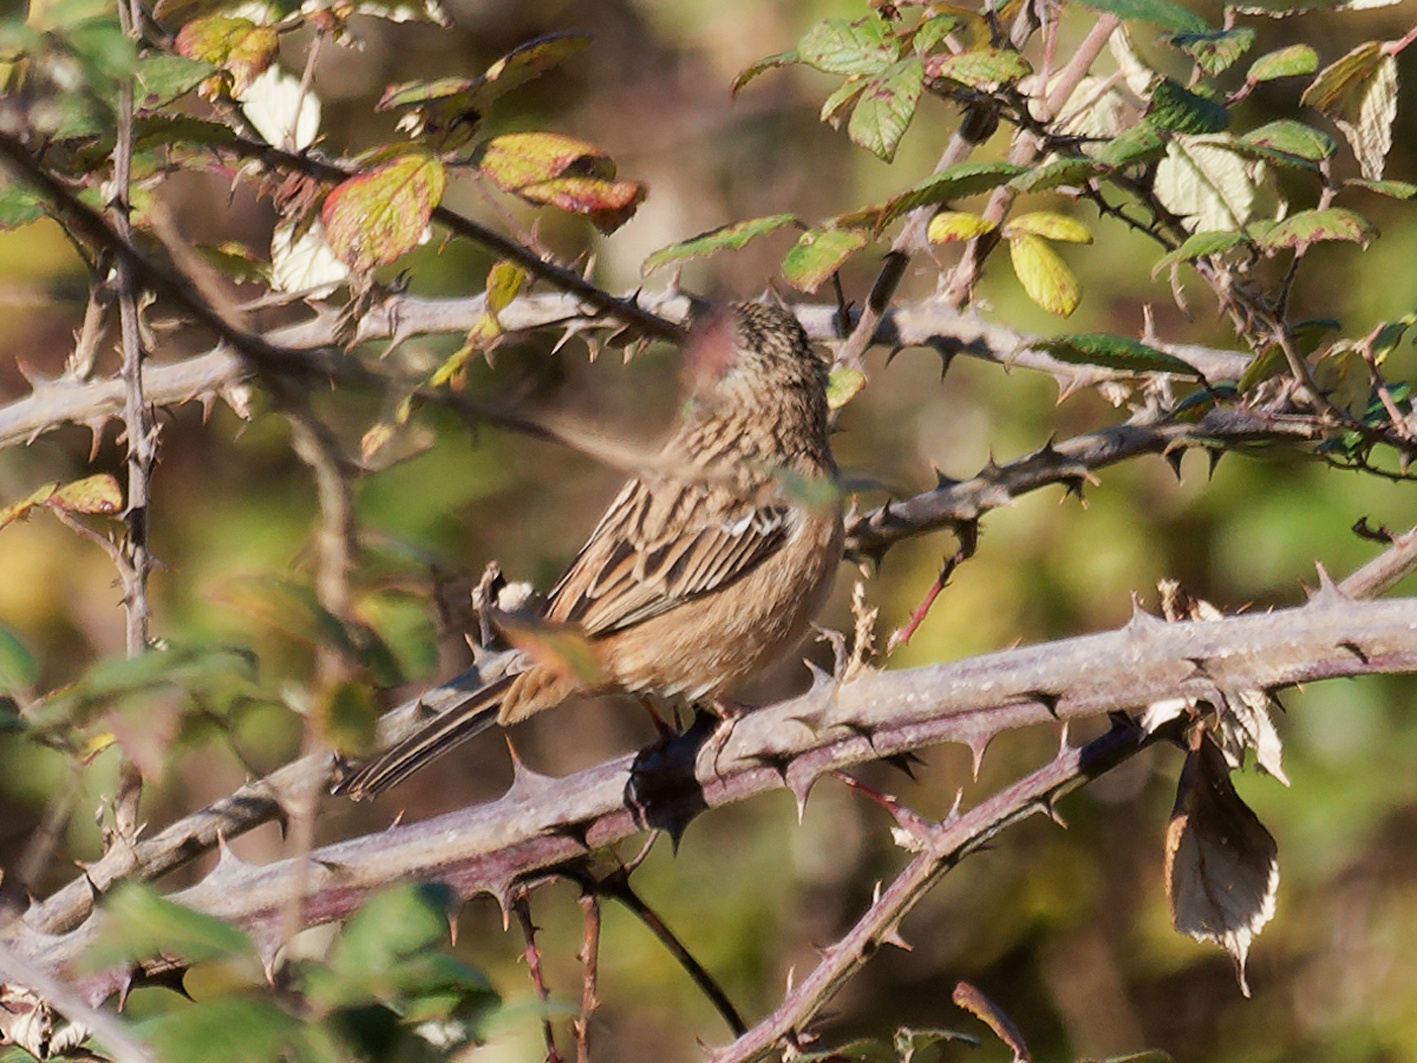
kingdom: Animalia
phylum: Chordata
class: Aves
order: Passeriformes
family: Emberizidae
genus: Emberiza
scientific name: Emberiza cia
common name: Rock bunting
